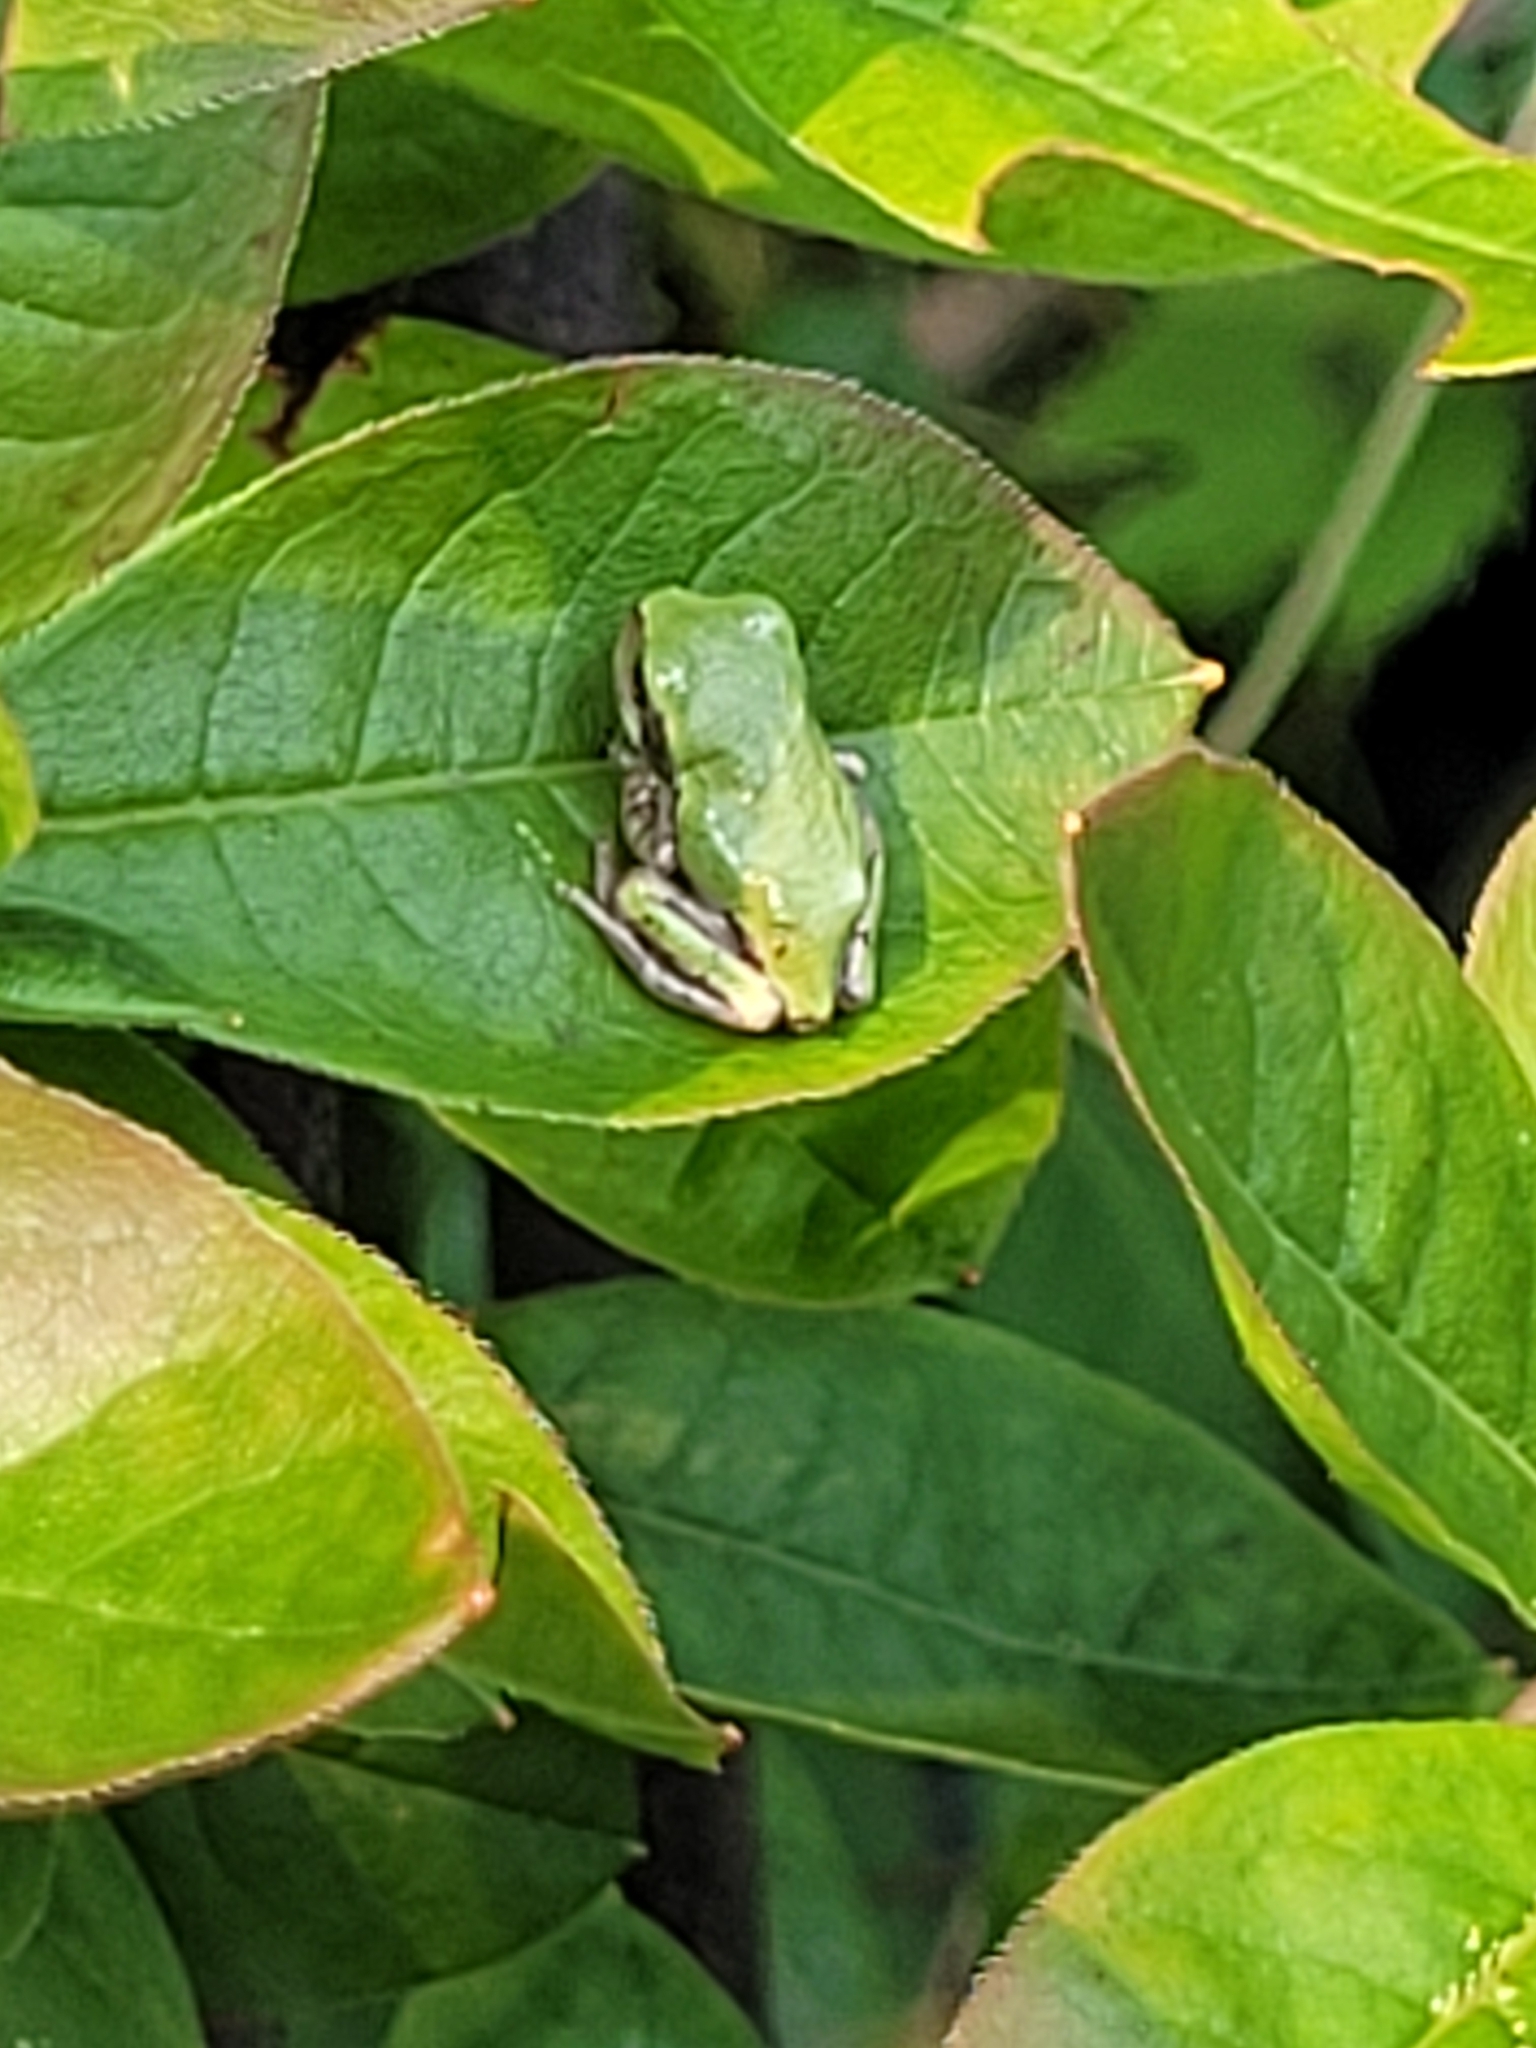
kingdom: Animalia
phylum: Chordata
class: Amphibia
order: Anura
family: Hylidae
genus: Dryophytes
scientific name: Dryophytes versicolor
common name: Gray treefrog
